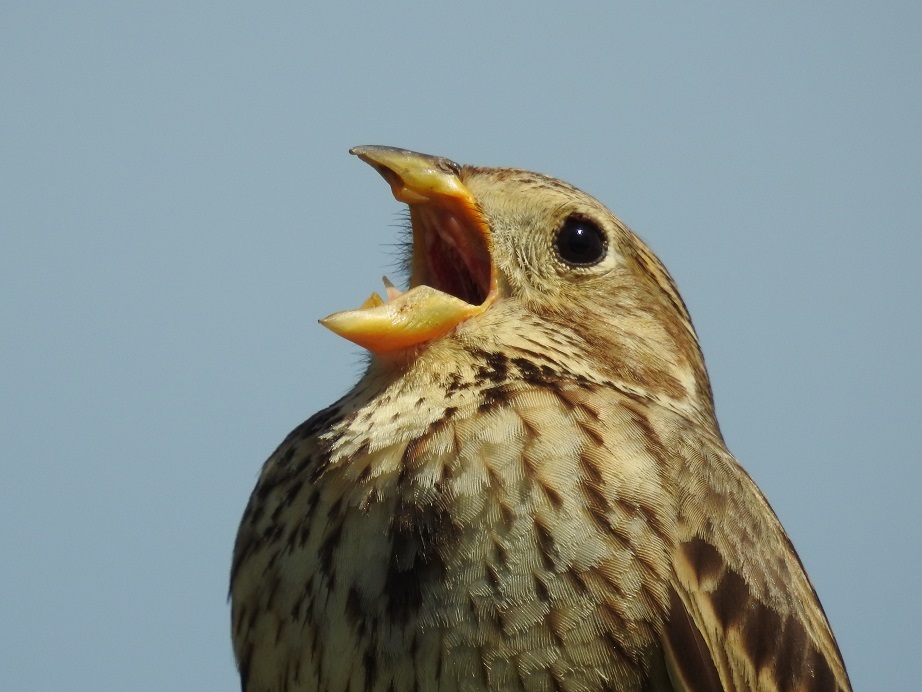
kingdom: Animalia
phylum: Chordata
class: Aves
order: Passeriformes
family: Emberizidae
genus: Emberiza
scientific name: Emberiza calandra
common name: Corn bunting
